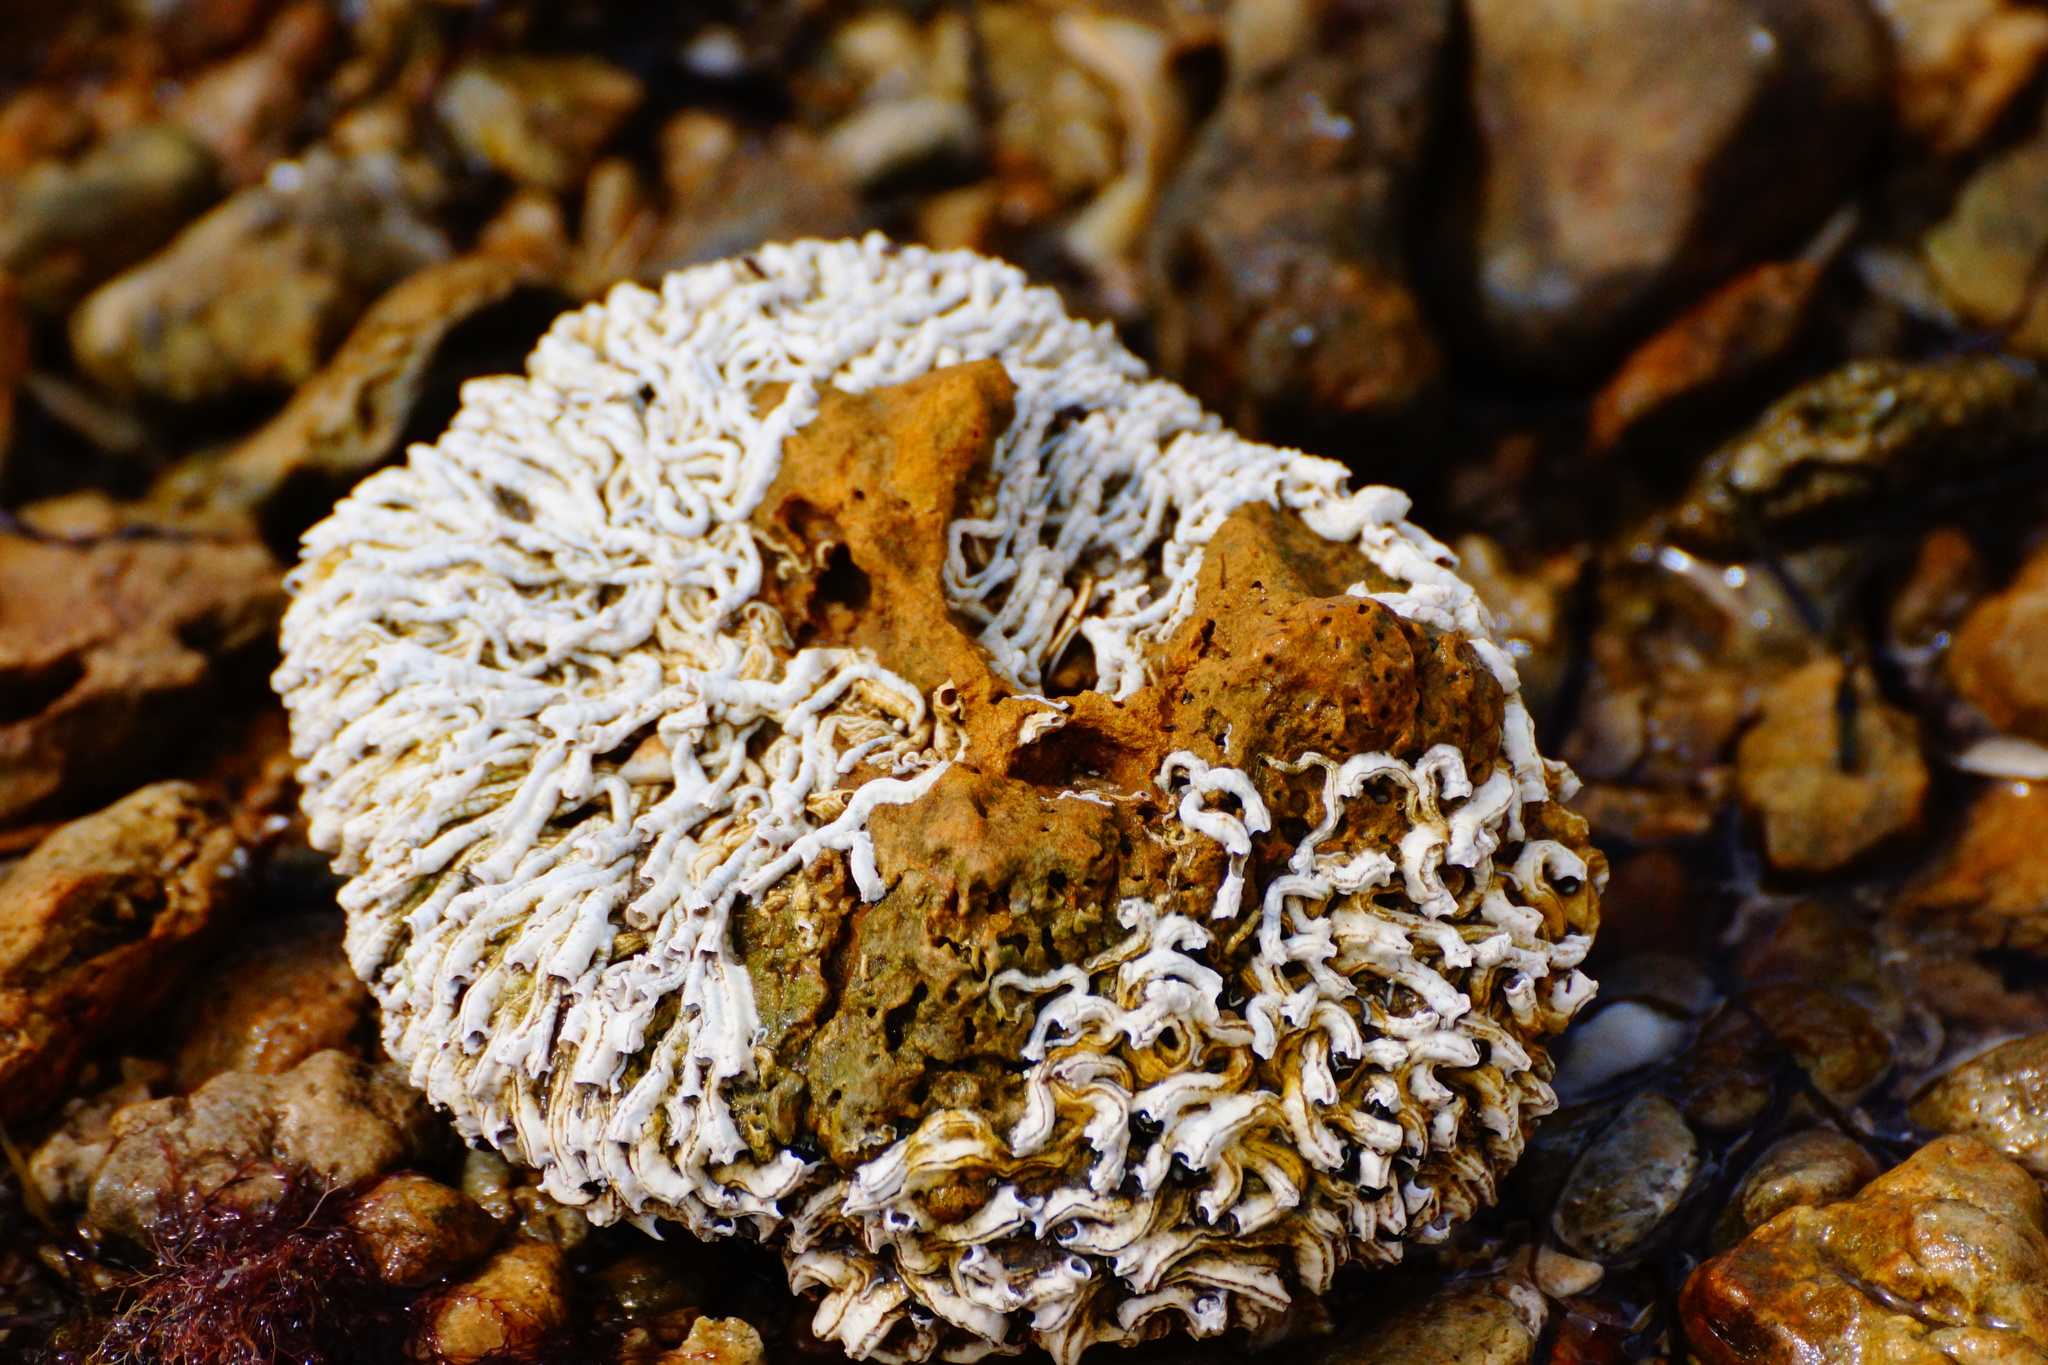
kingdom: Animalia
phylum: Annelida
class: Polychaeta
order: Sabellida
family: Serpulidae
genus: Galeolaria
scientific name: Galeolaria caespitosa
